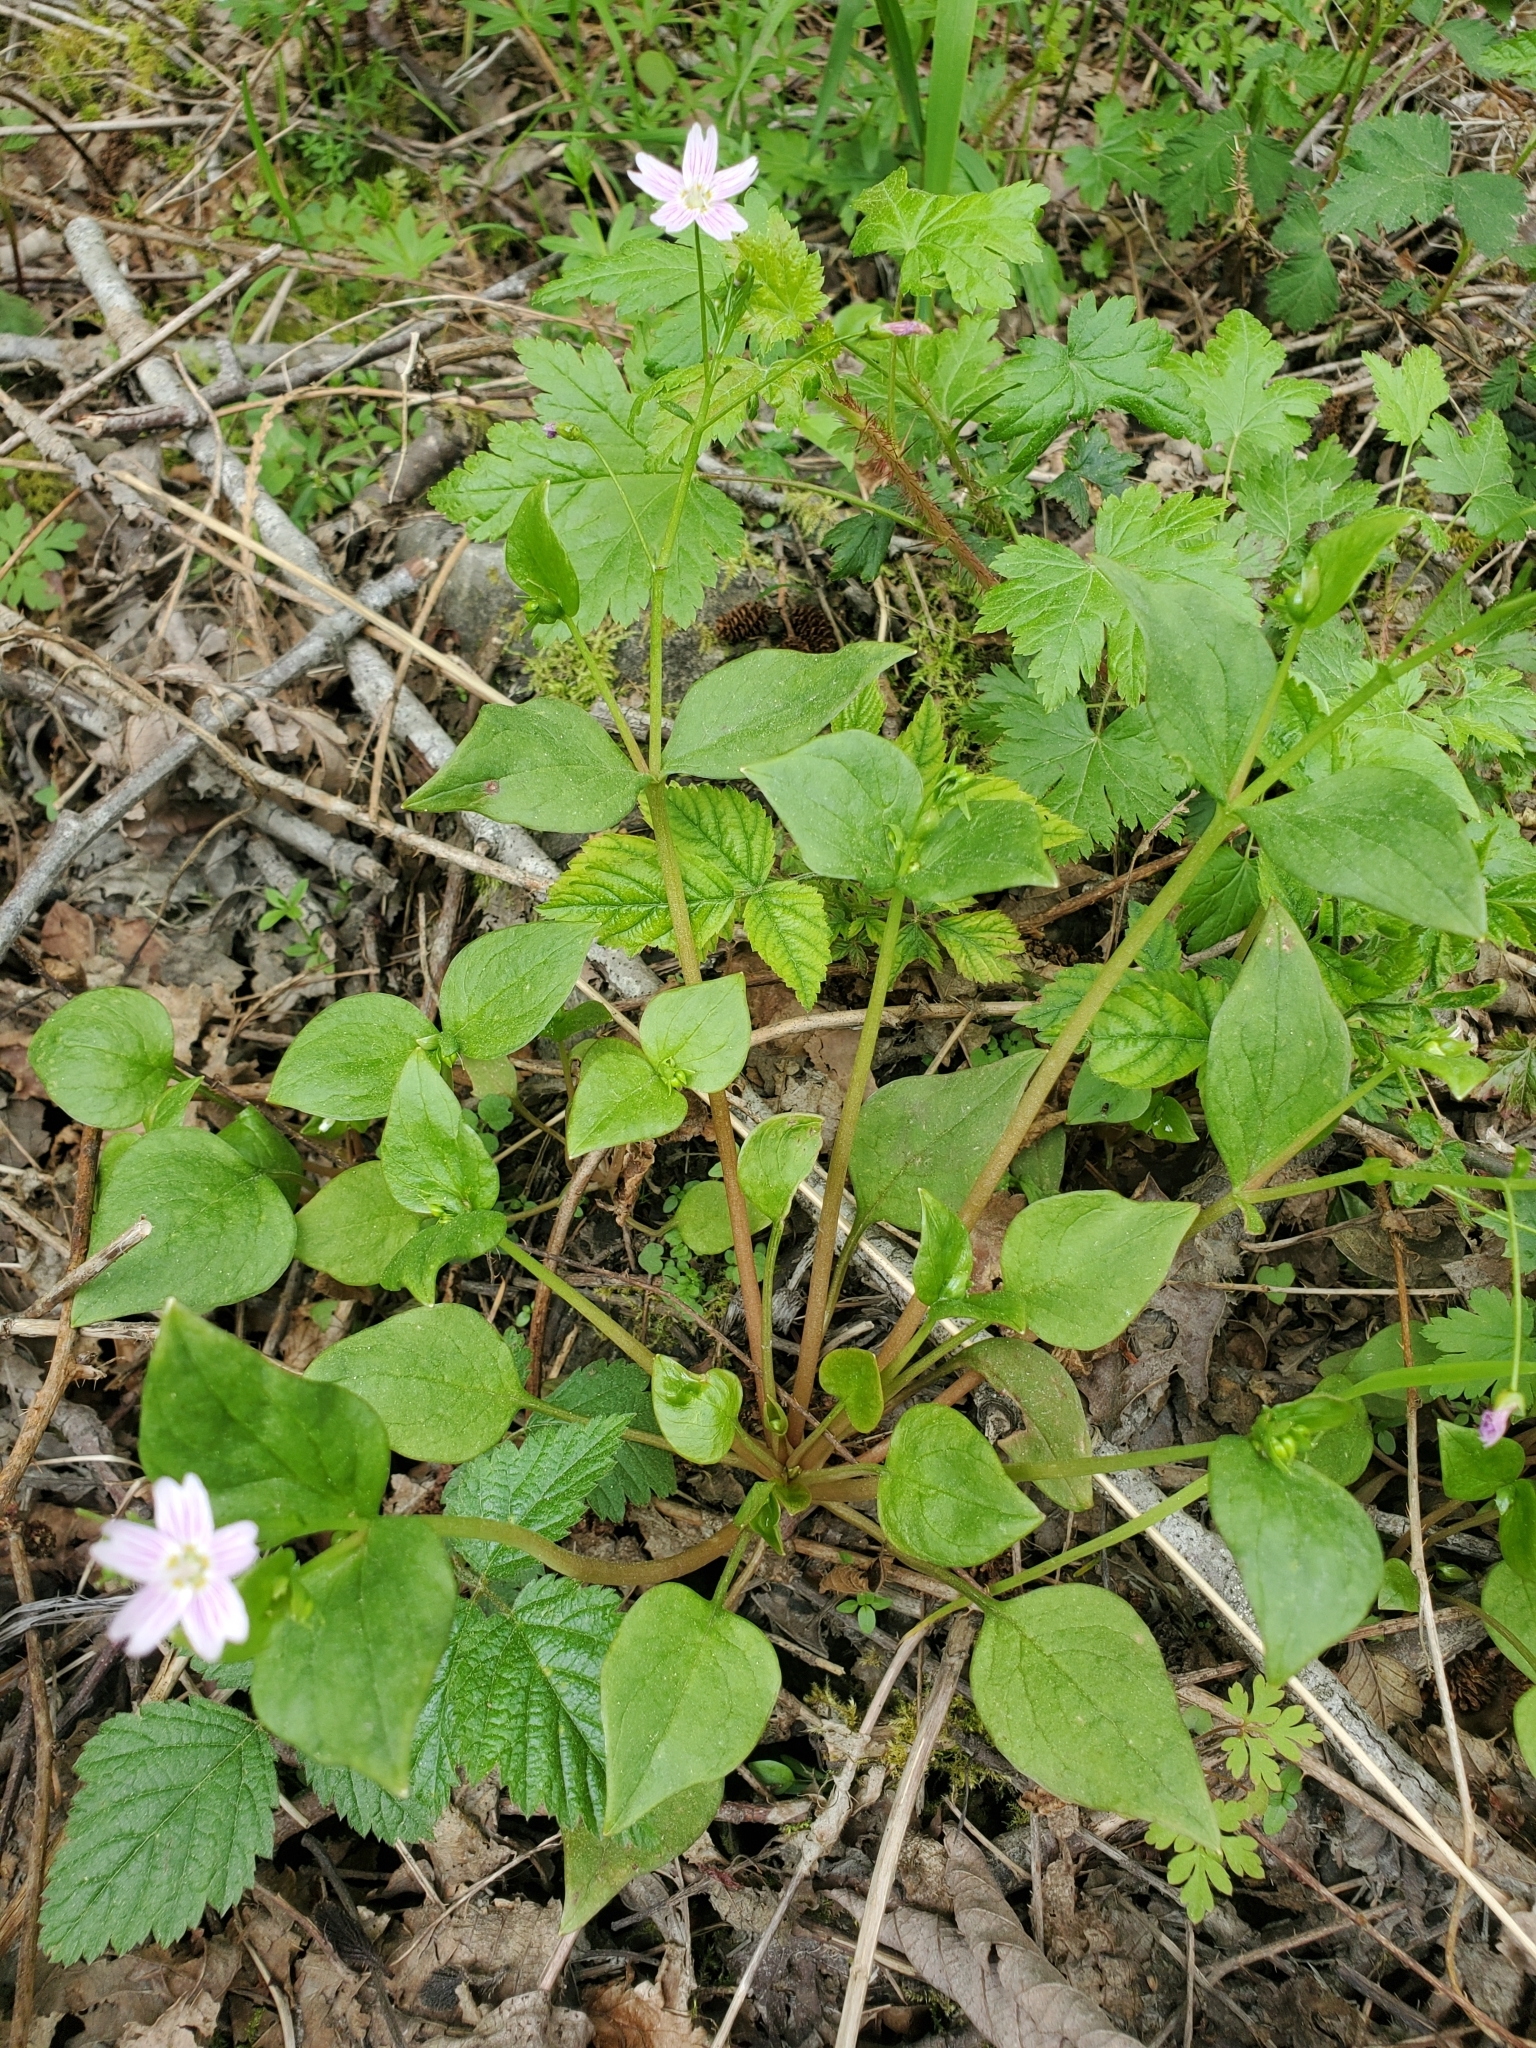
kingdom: Plantae
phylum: Tracheophyta
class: Magnoliopsida
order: Caryophyllales
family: Montiaceae
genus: Claytonia
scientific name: Claytonia sibirica
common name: Pink purslane
